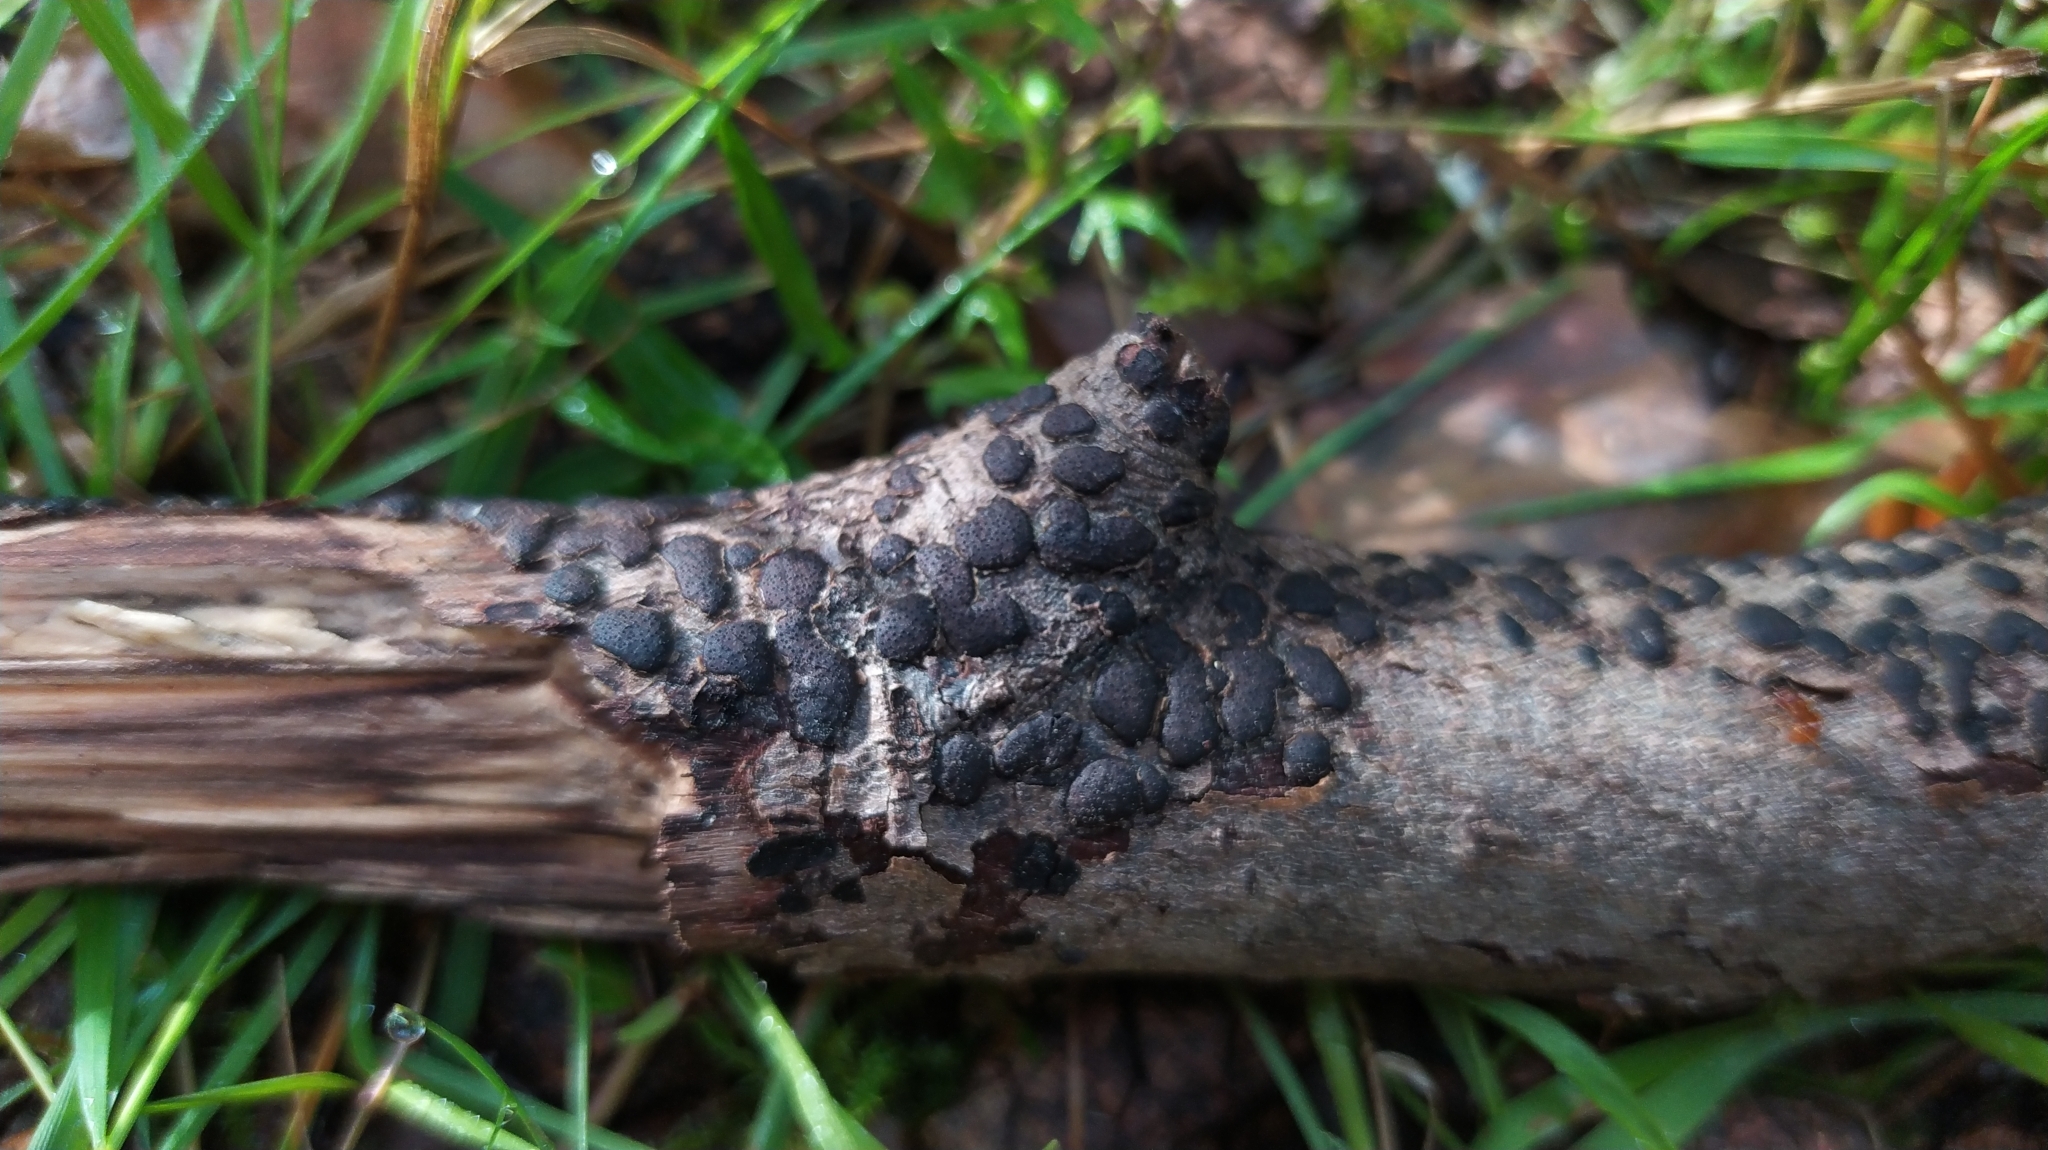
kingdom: Fungi
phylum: Ascomycota
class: Sordariomycetes
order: Xylariales
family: Diatrypaceae
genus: Diatrype
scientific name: Diatrype bullata
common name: Willow barkspot
